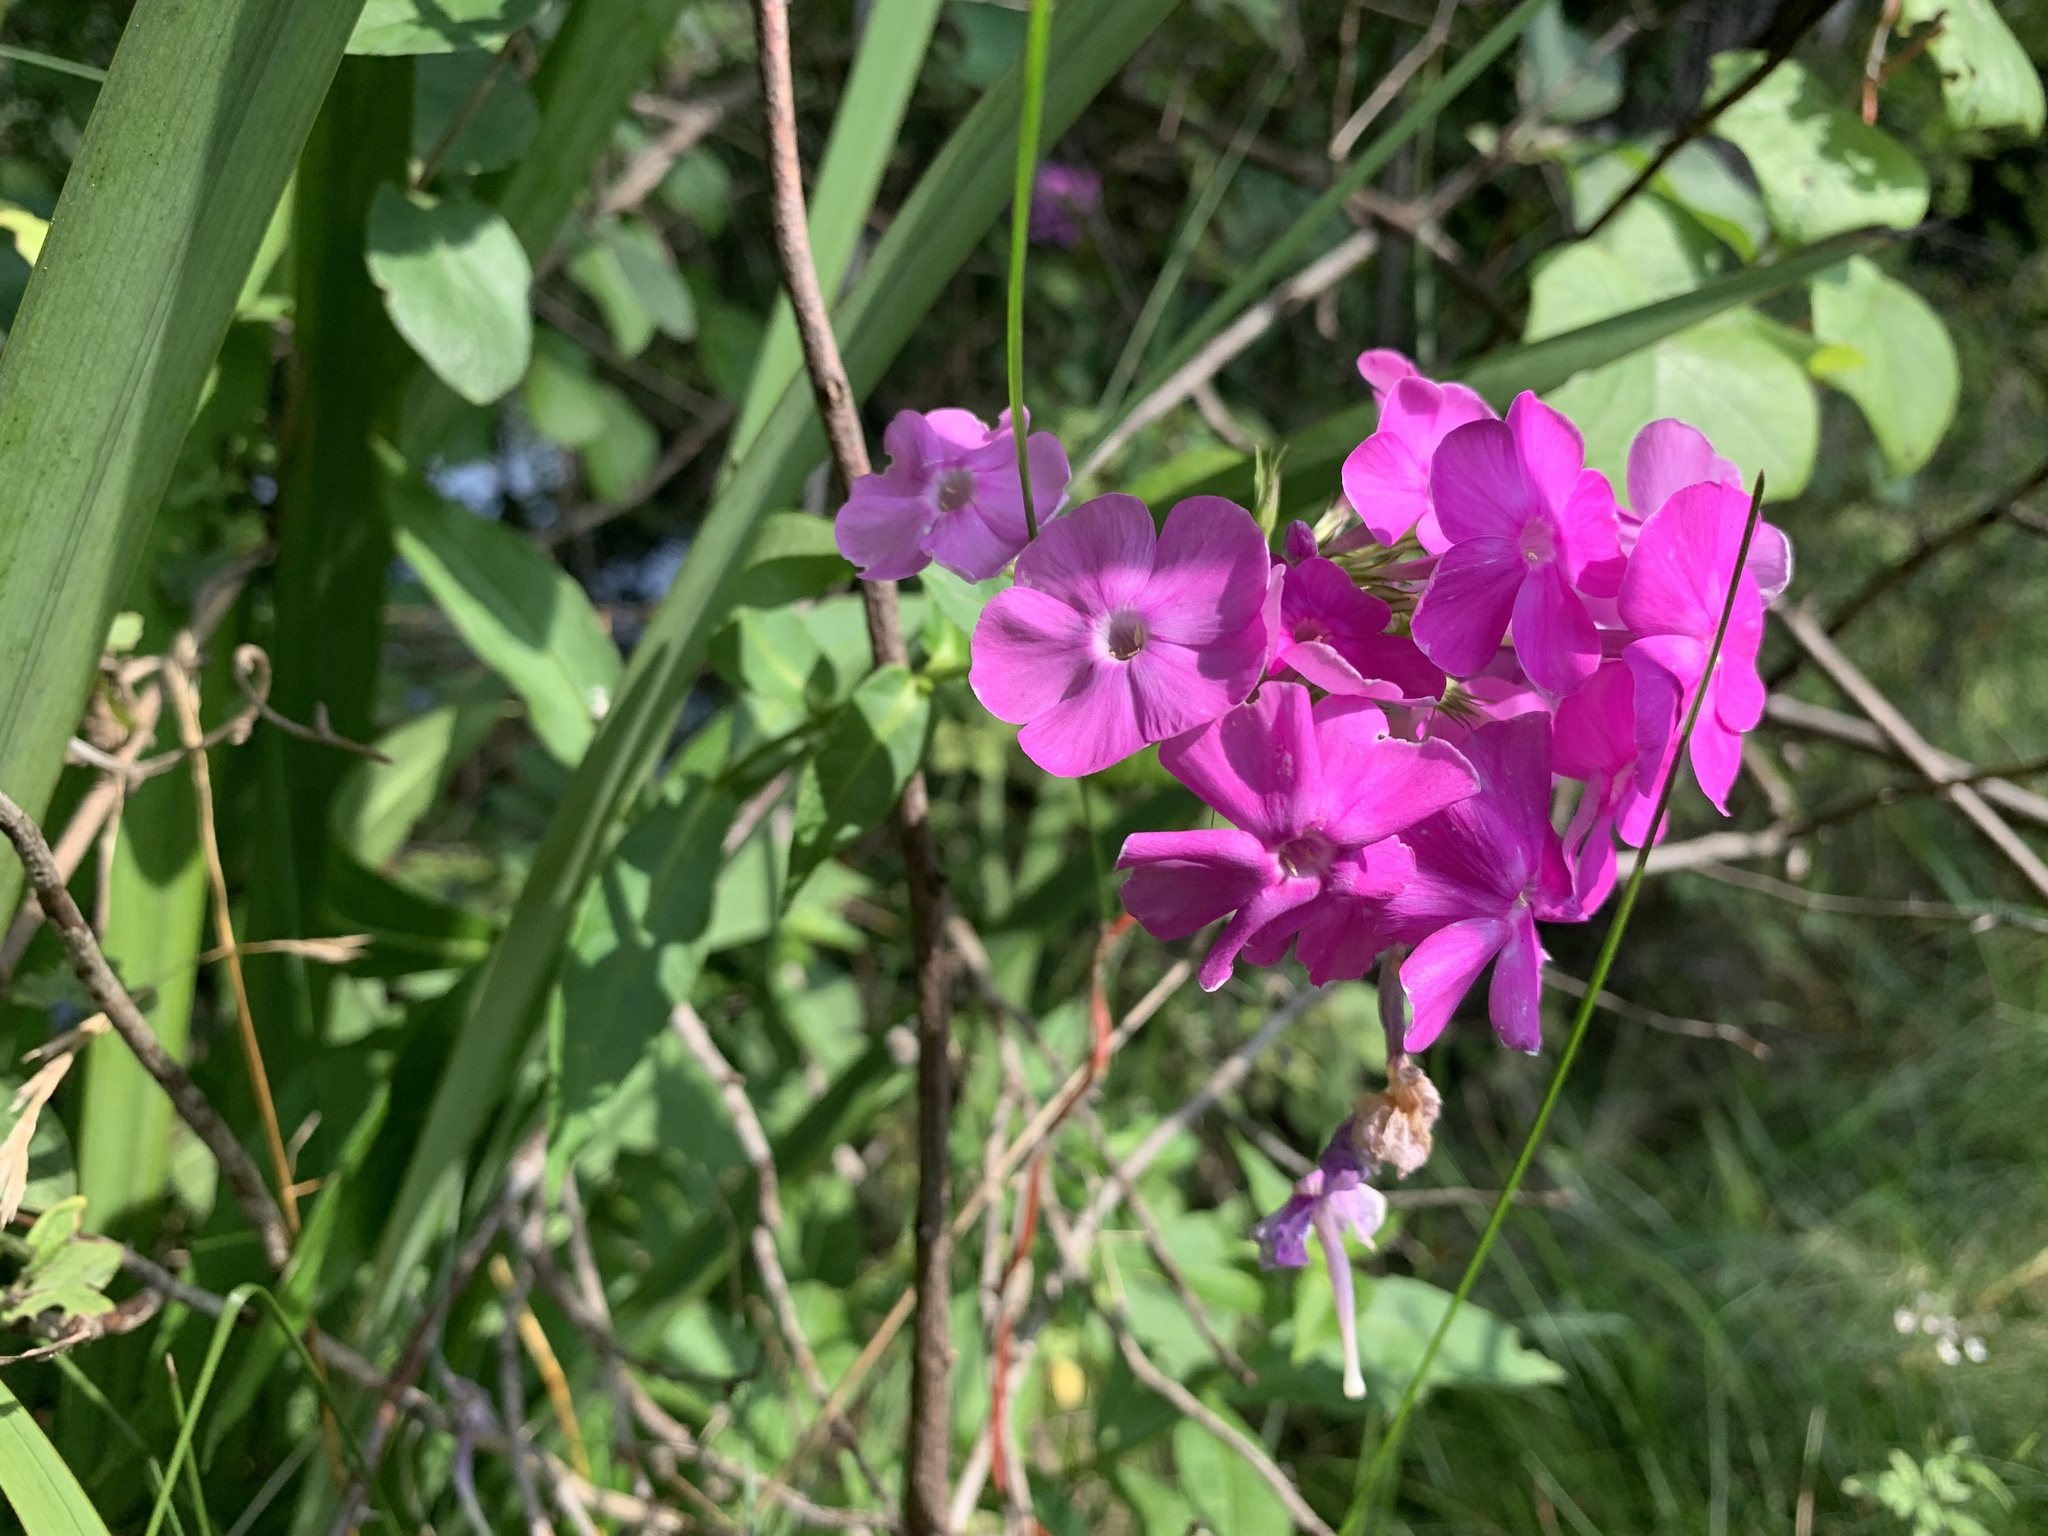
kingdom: Plantae
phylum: Tracheophyta
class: Magnoliopsida
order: Ericales
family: Polemoniaceae
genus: Phlox
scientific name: Phlox paniculata
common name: Fall phlox
